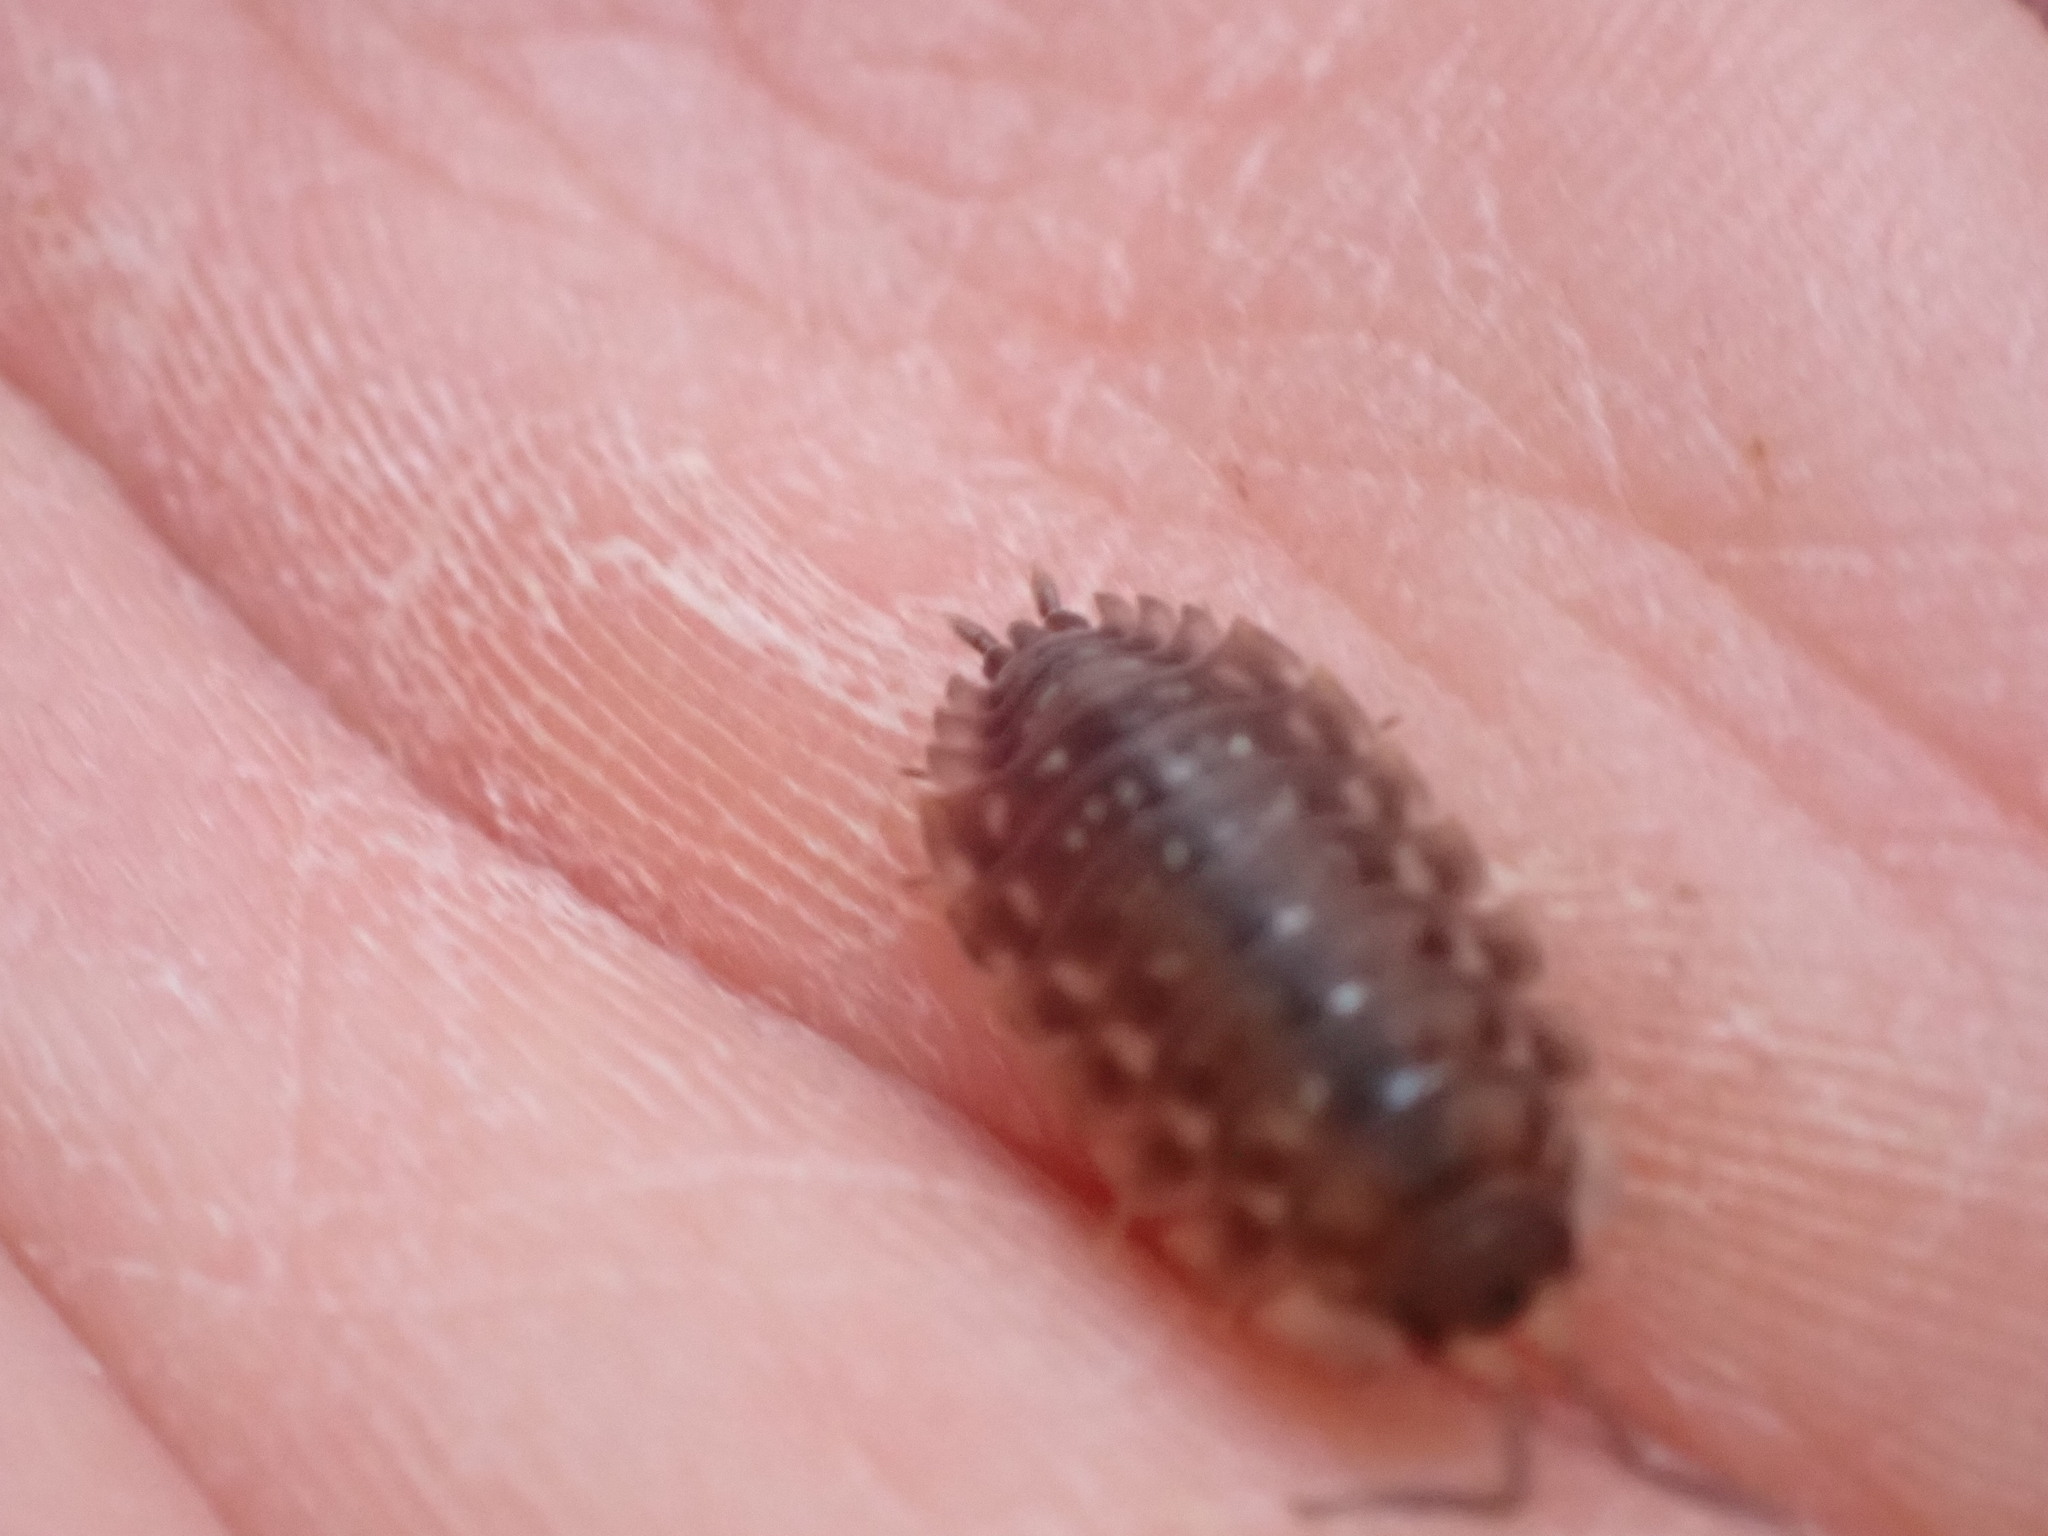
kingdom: Animalia
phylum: Arthropoda
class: Malacostraca
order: Isopoda
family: Oniscidae
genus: Oniscus
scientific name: Oniscus asellus
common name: Common shiny woodlouse
